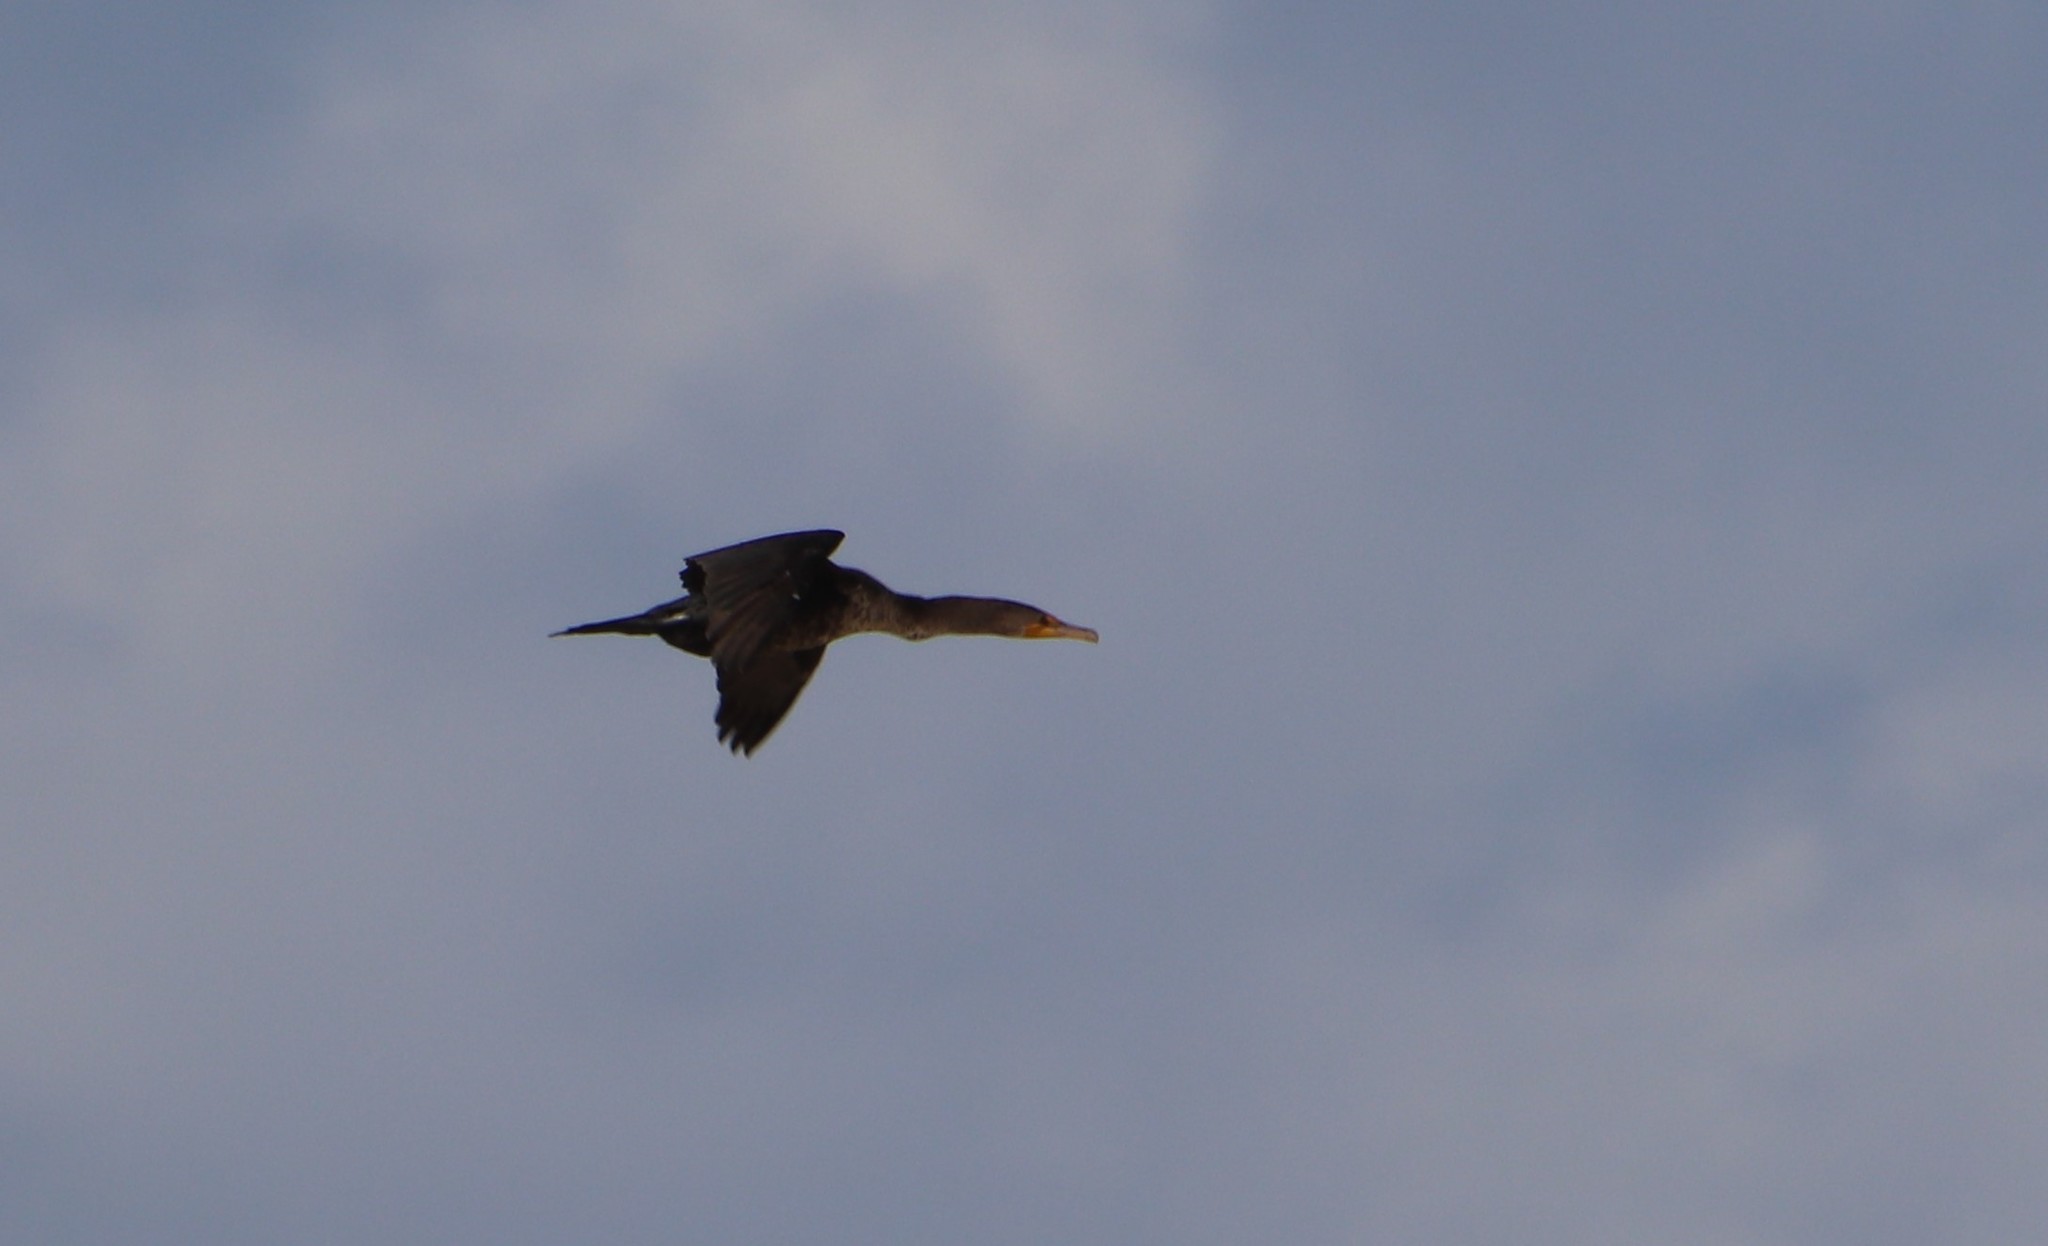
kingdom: Animalia
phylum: Chordata
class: Aves
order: Suliformes
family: Phalacrocoracidae
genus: Phalacrocorax
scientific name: Phalacrocorax auritus
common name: Double-crested cormorant
